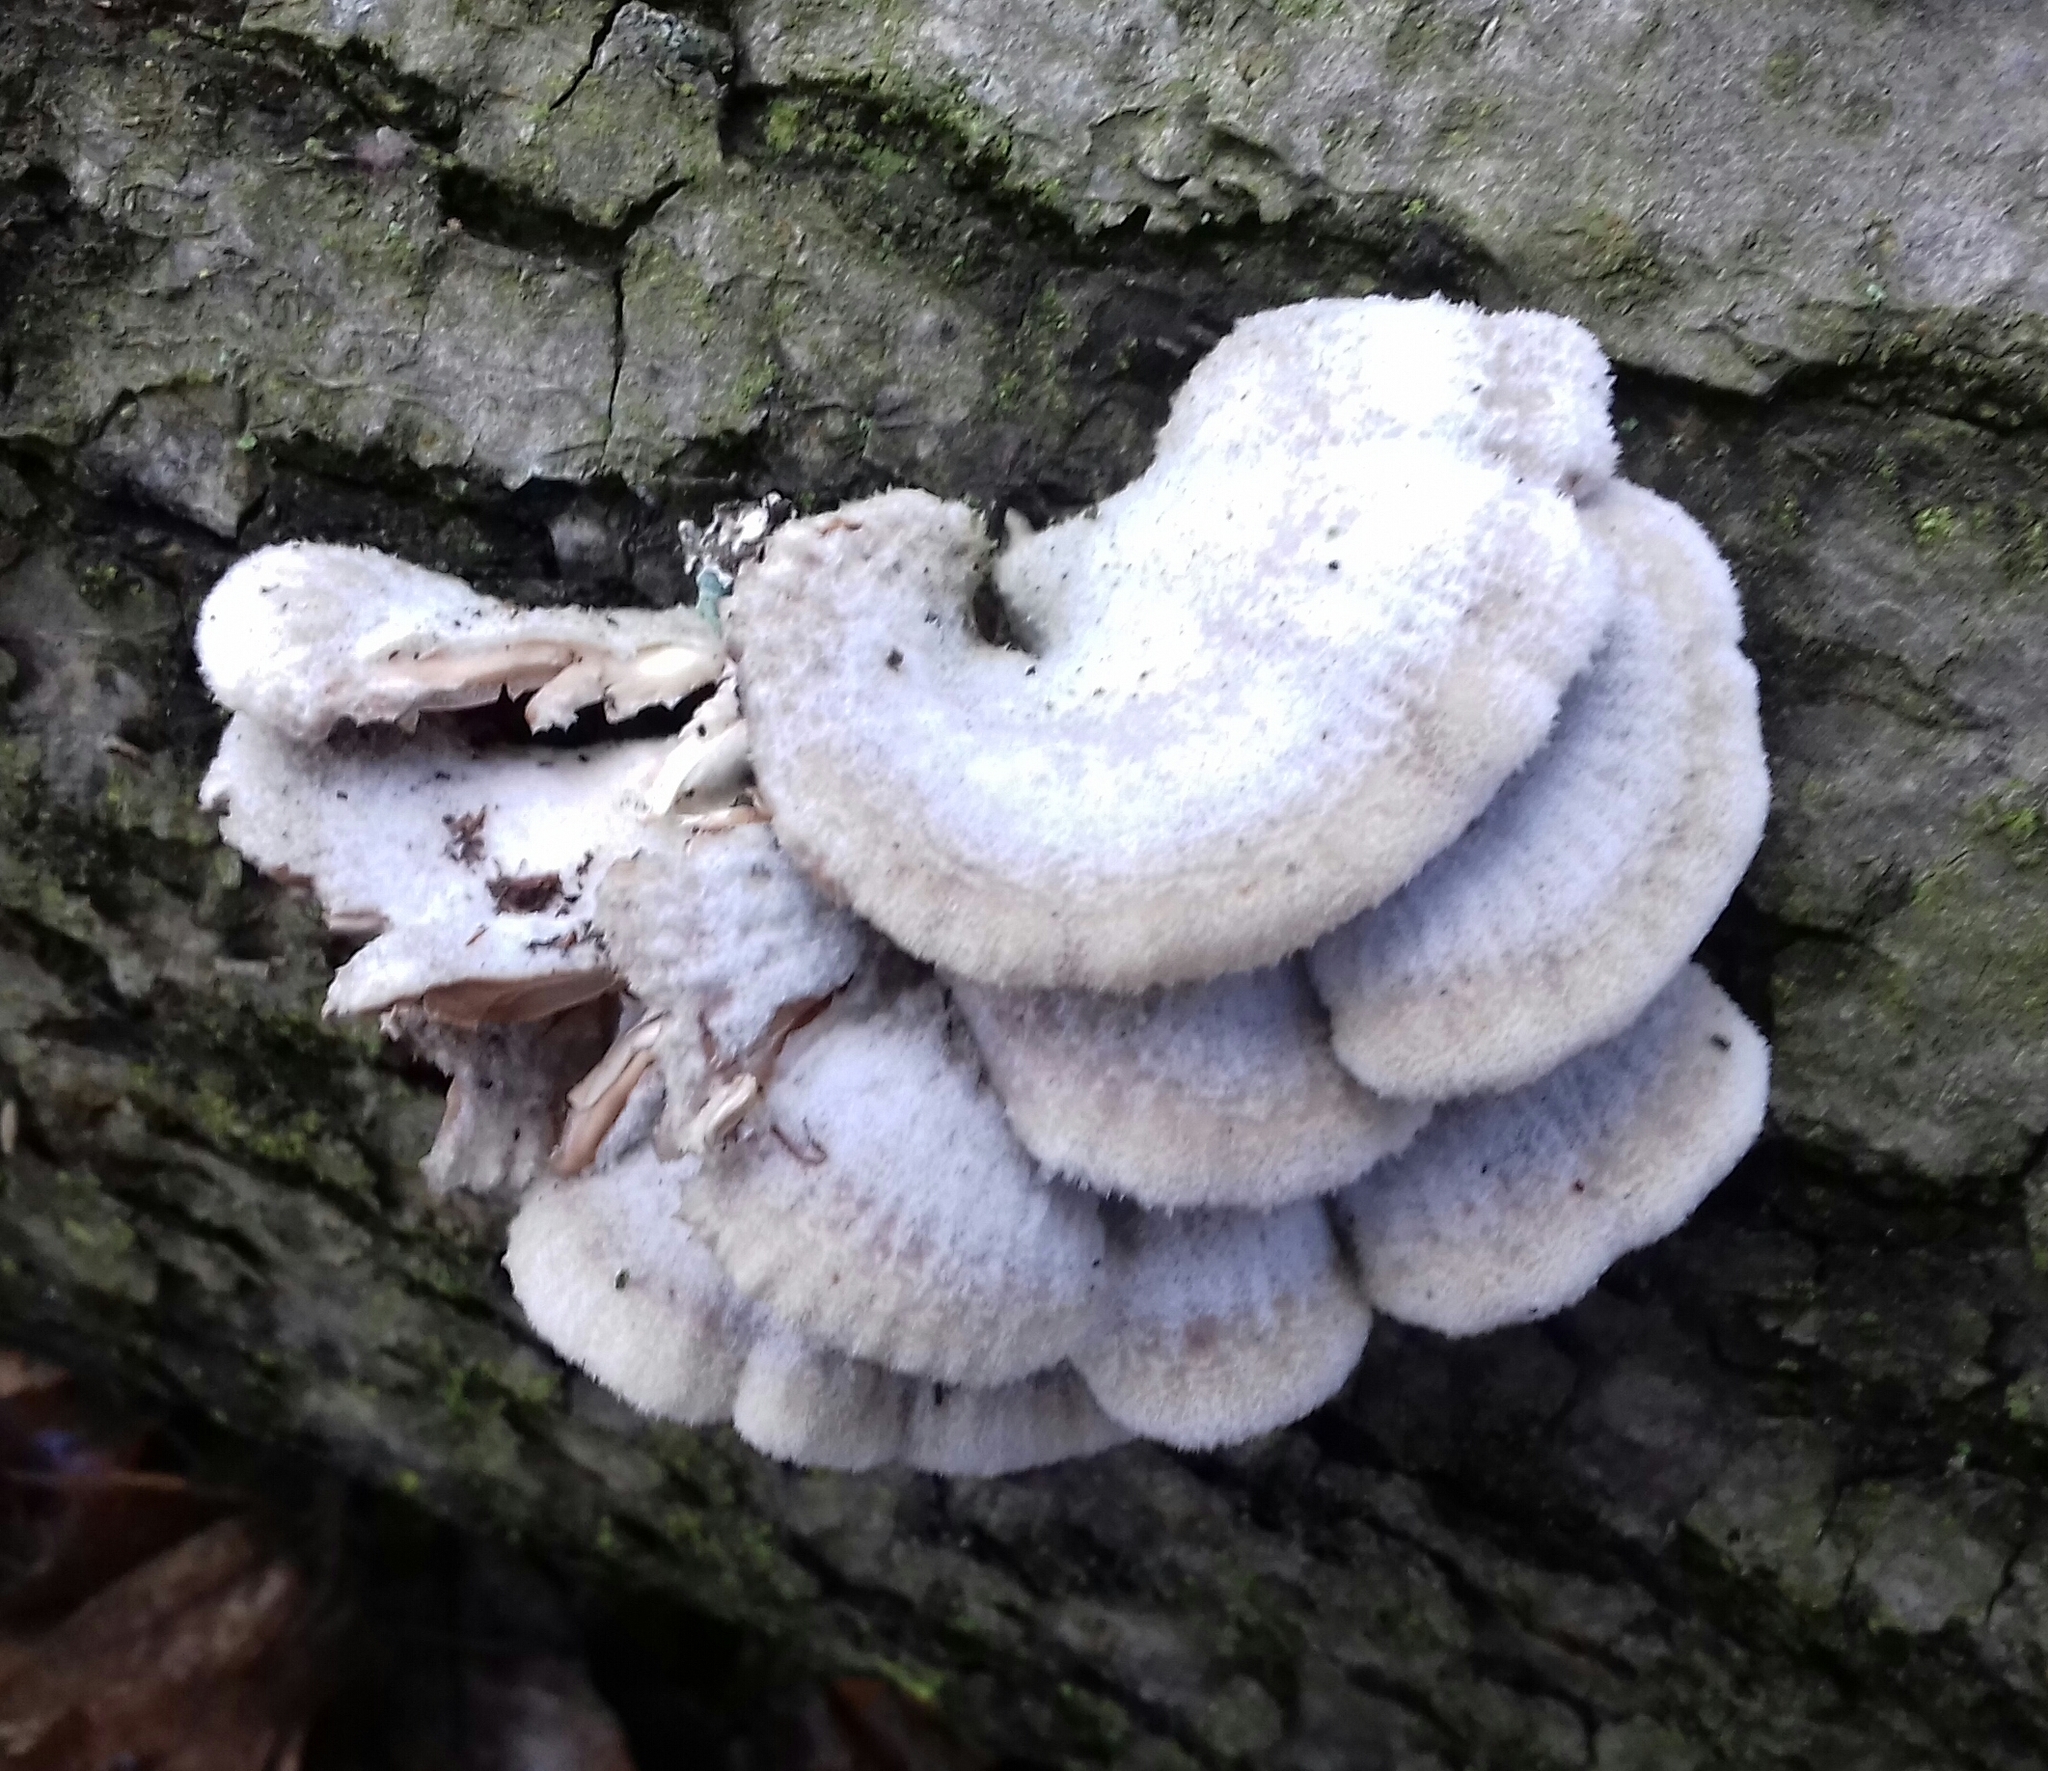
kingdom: Fungi
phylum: Basidiomycota
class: Agaricomycetes
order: Agaricales
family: Schizophyllaceae
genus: Schizophyllum
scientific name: Schizophyllum commune
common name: Common porecrust
